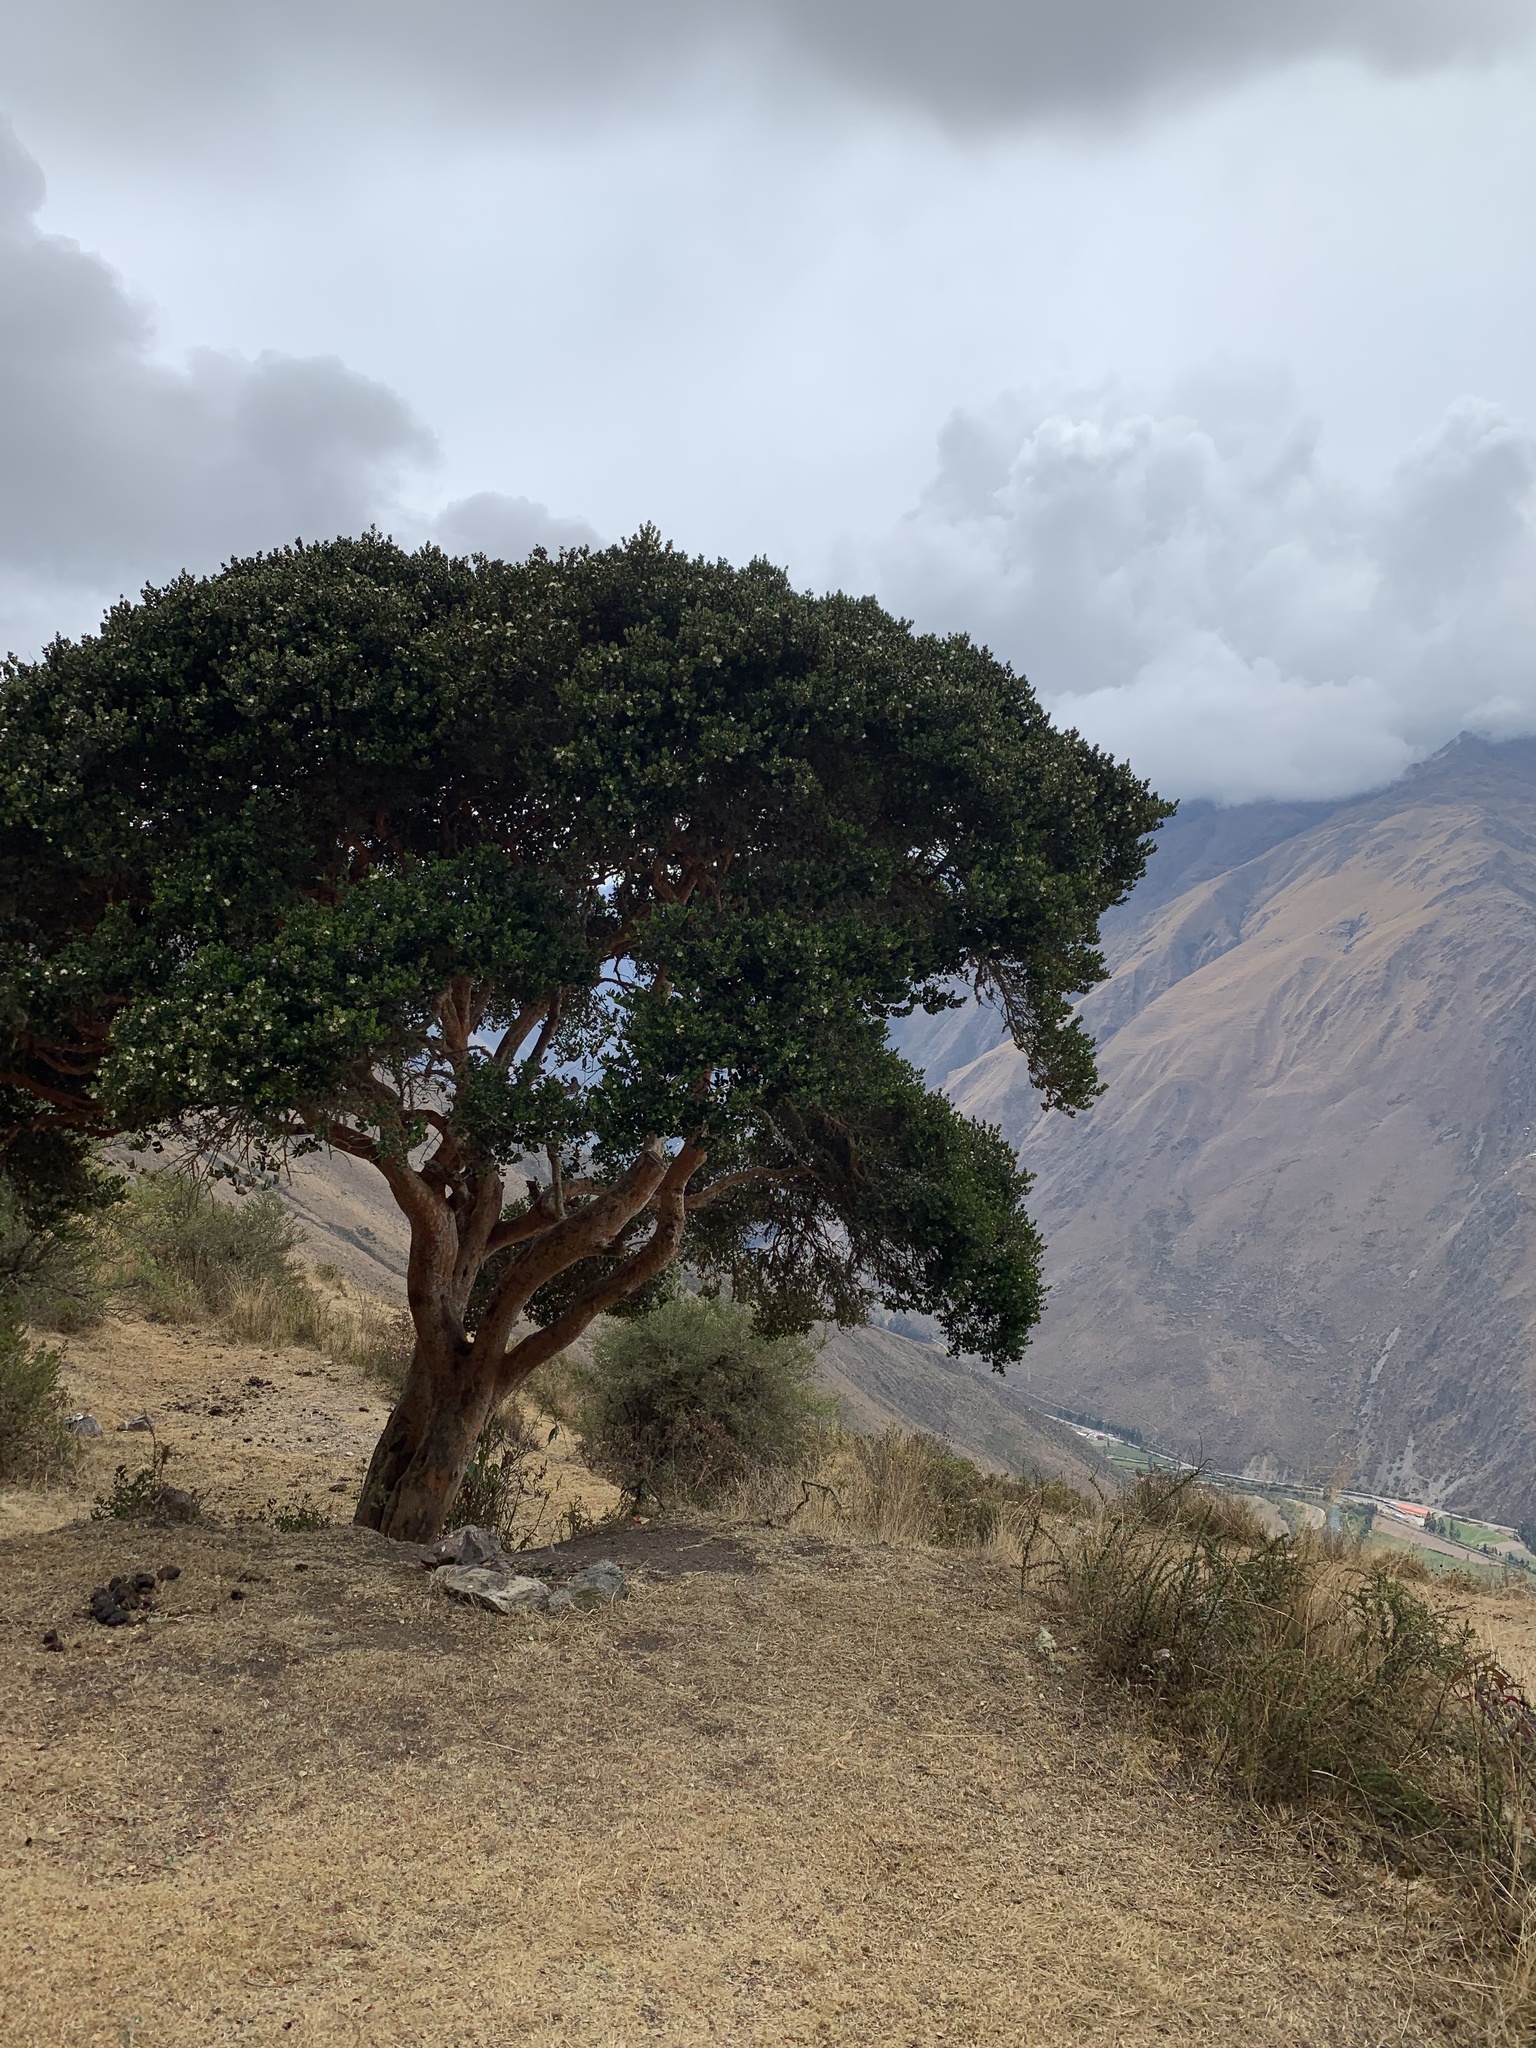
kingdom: Plantae
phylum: Tracheophyta
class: Magnoliopsida
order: Myrtales
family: Myrtaceae
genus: Myrcianthes
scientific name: Myrcianthes oreophila
